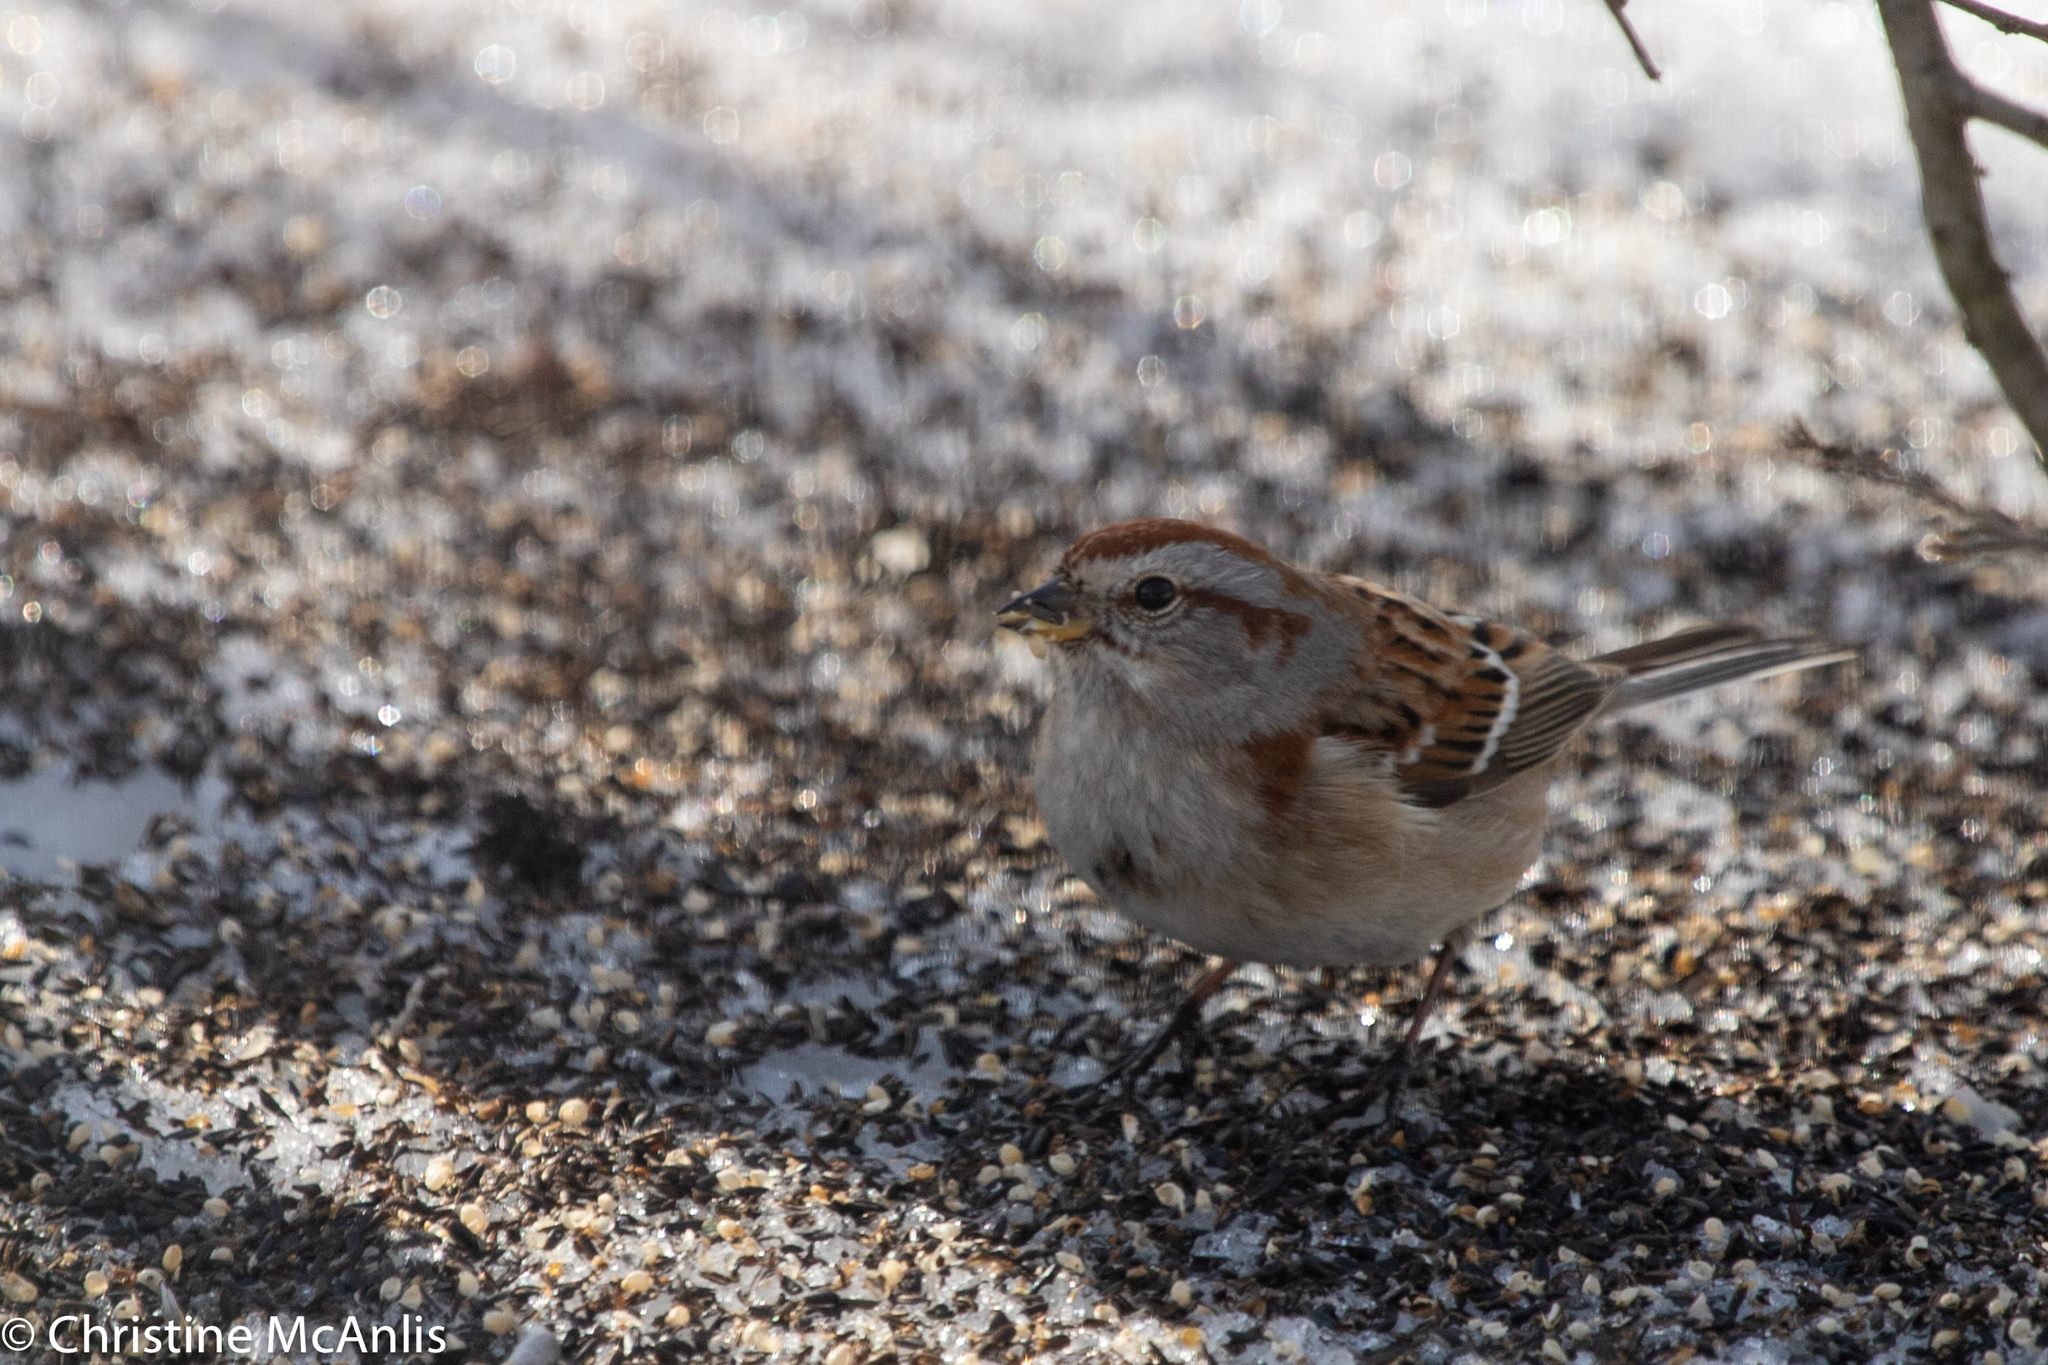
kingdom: Animalia
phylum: Chordata
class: Aves
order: Passeriformes
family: Passerellidae
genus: Spizelloides
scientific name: Spizelloides arborea
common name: American tree sparrow
